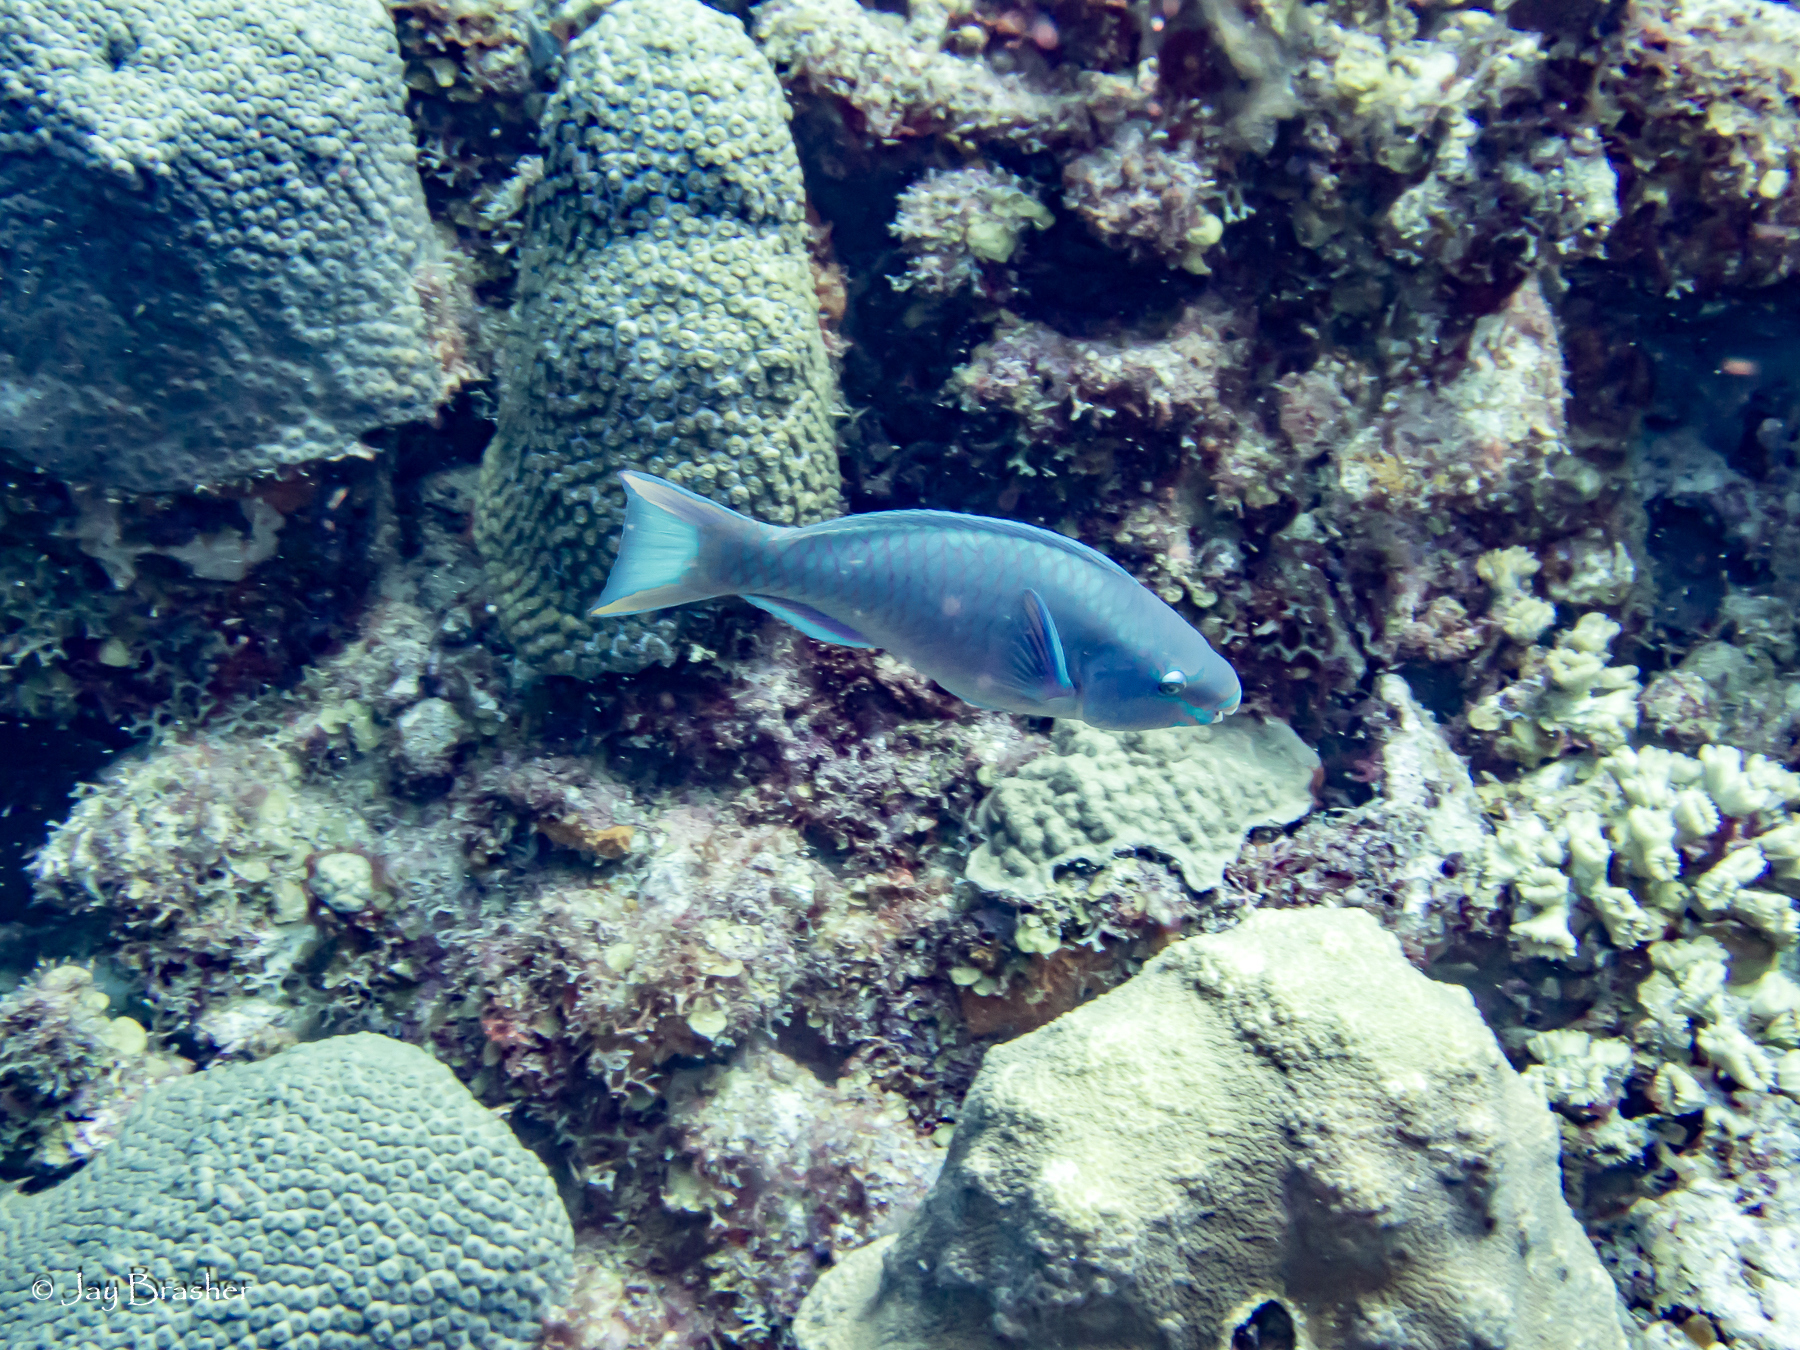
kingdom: Animalia
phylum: Chordata
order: Perciformes
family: Scaridae
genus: Scarus
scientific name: Scarus vetula
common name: Queen parrotfish
